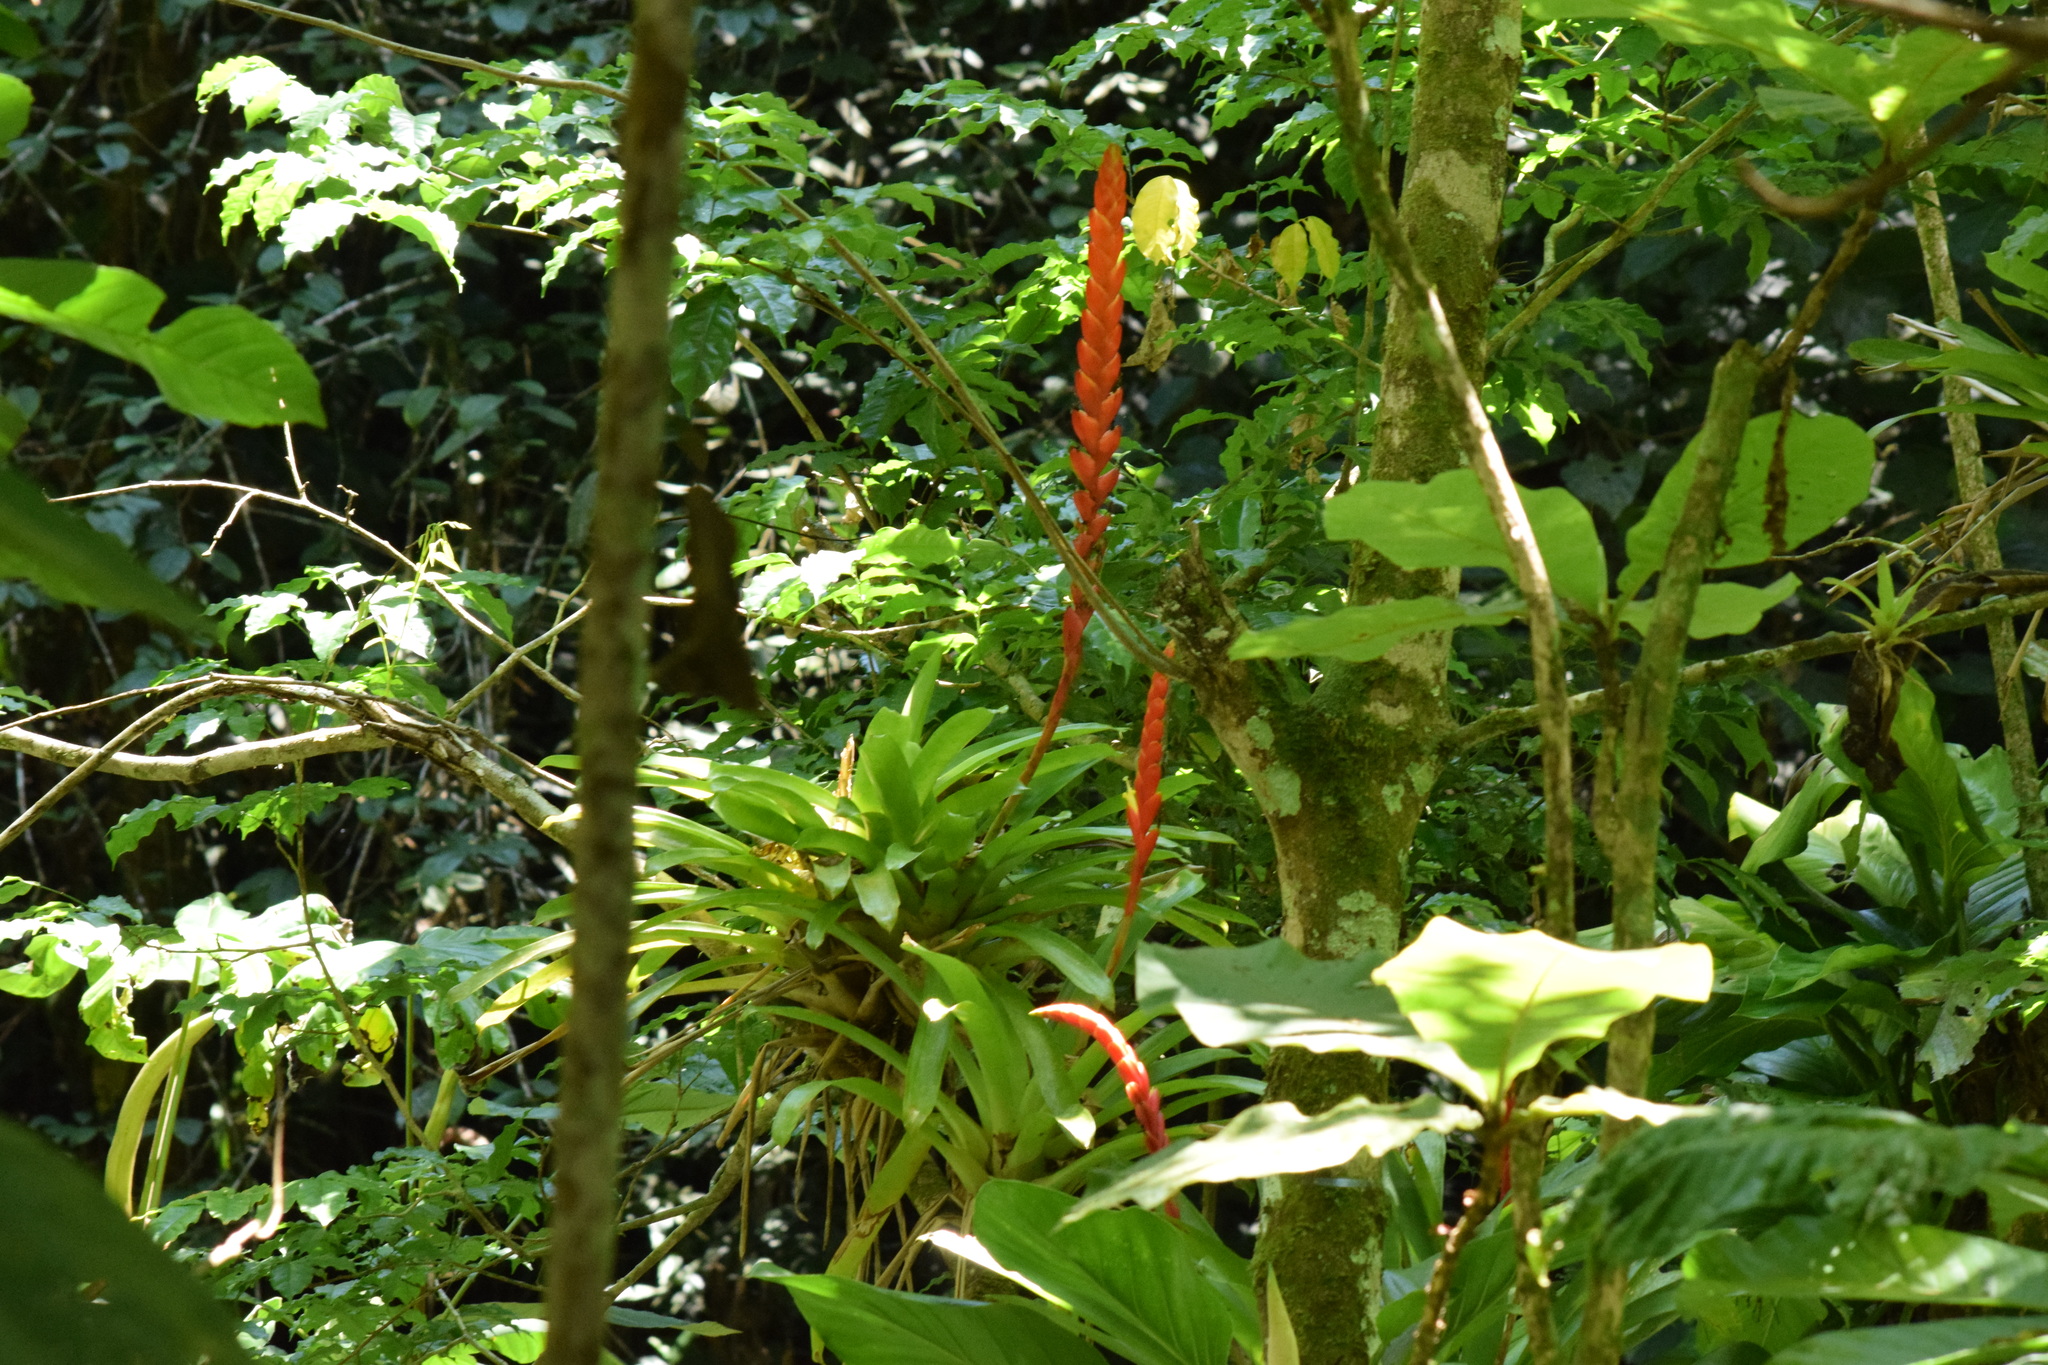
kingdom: Plantae
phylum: Tracheophyta
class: Liliopsida
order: Poales
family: Bromeliaceae
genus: Vriesea
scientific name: Vriesea ensiformis
